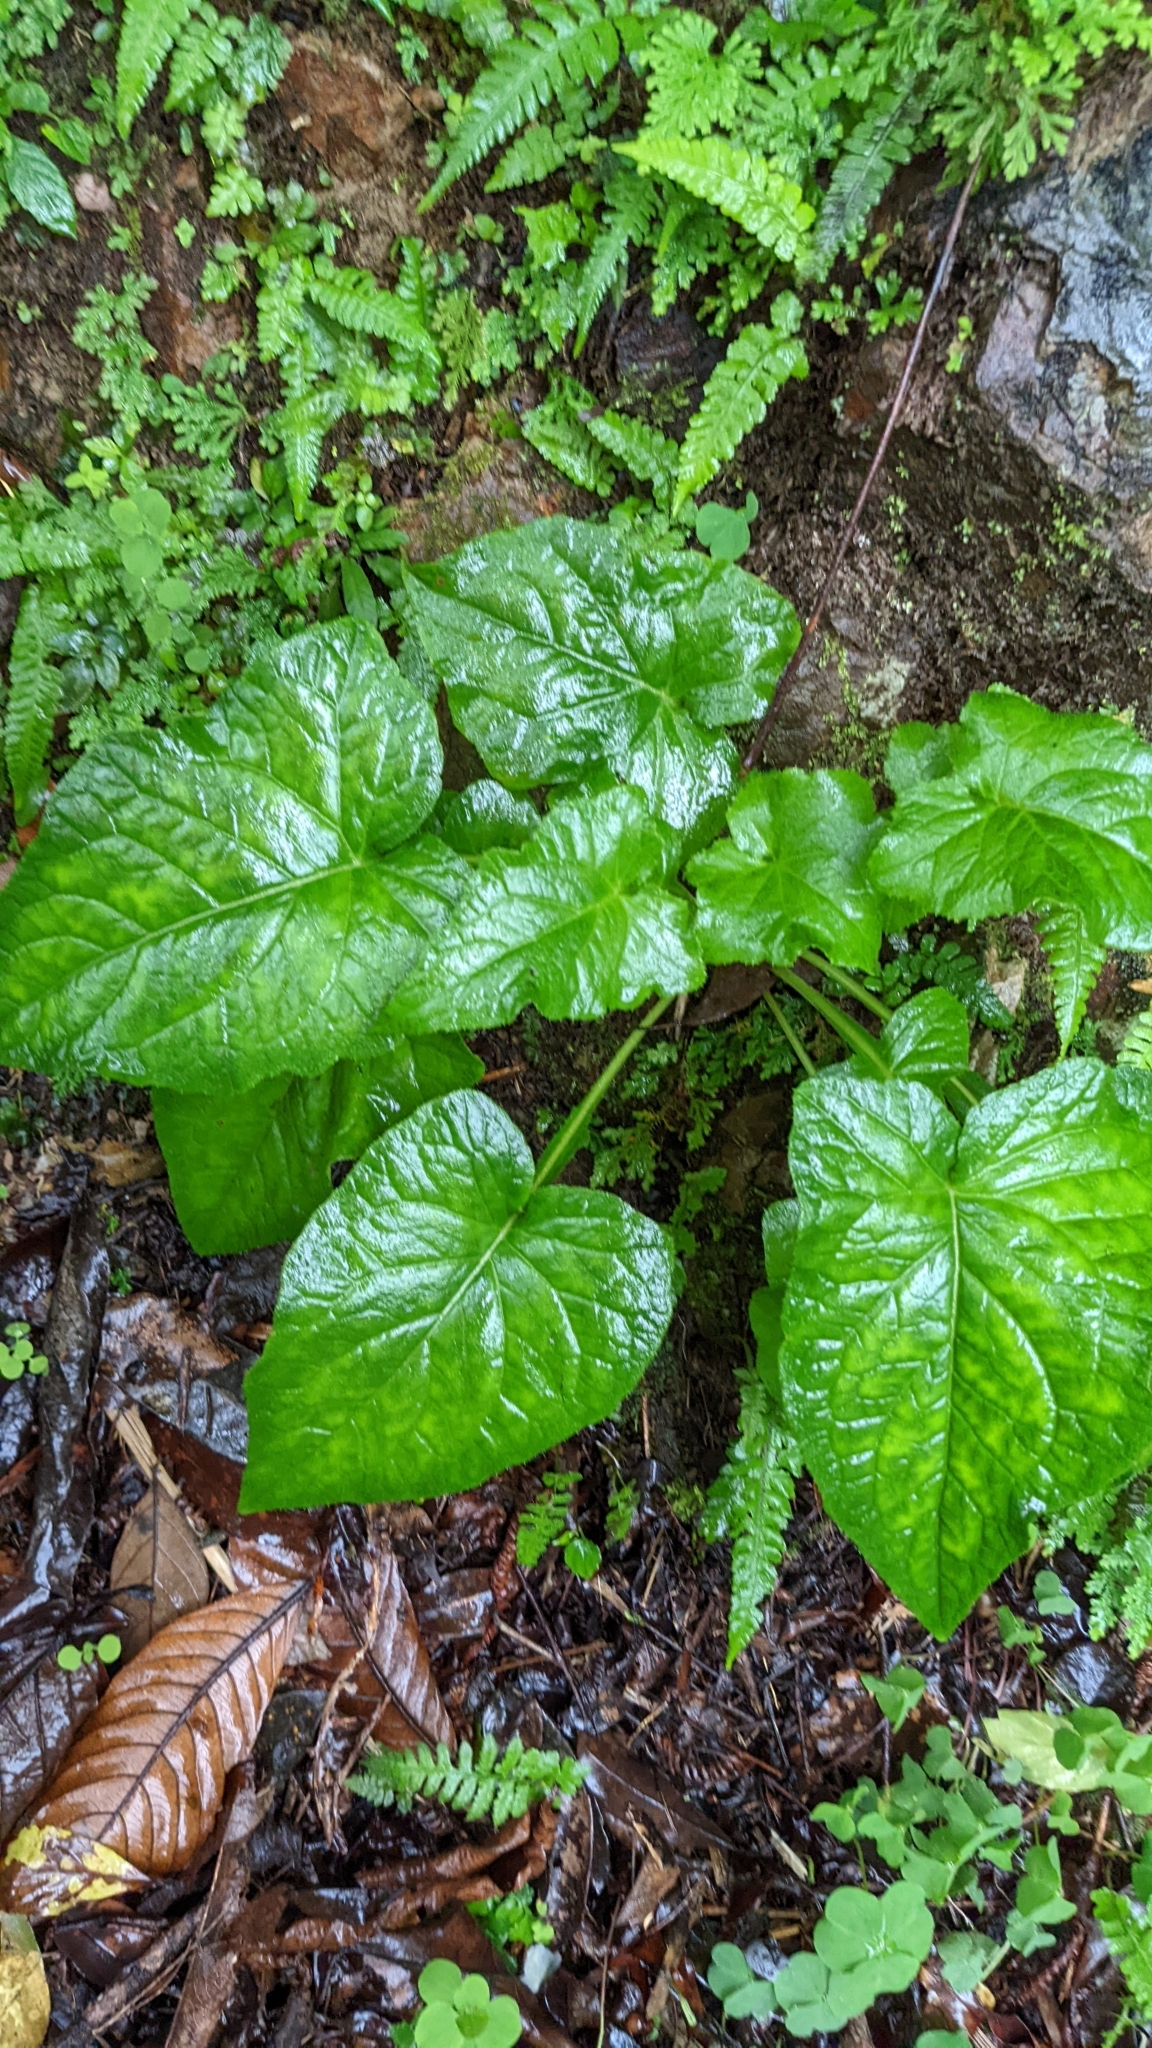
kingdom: Plantae
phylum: Tracheophyta
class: Magnoliopsida
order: Asterales
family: Asteraceae
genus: Paraprenanthes
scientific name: Paraprenanthes sororia
